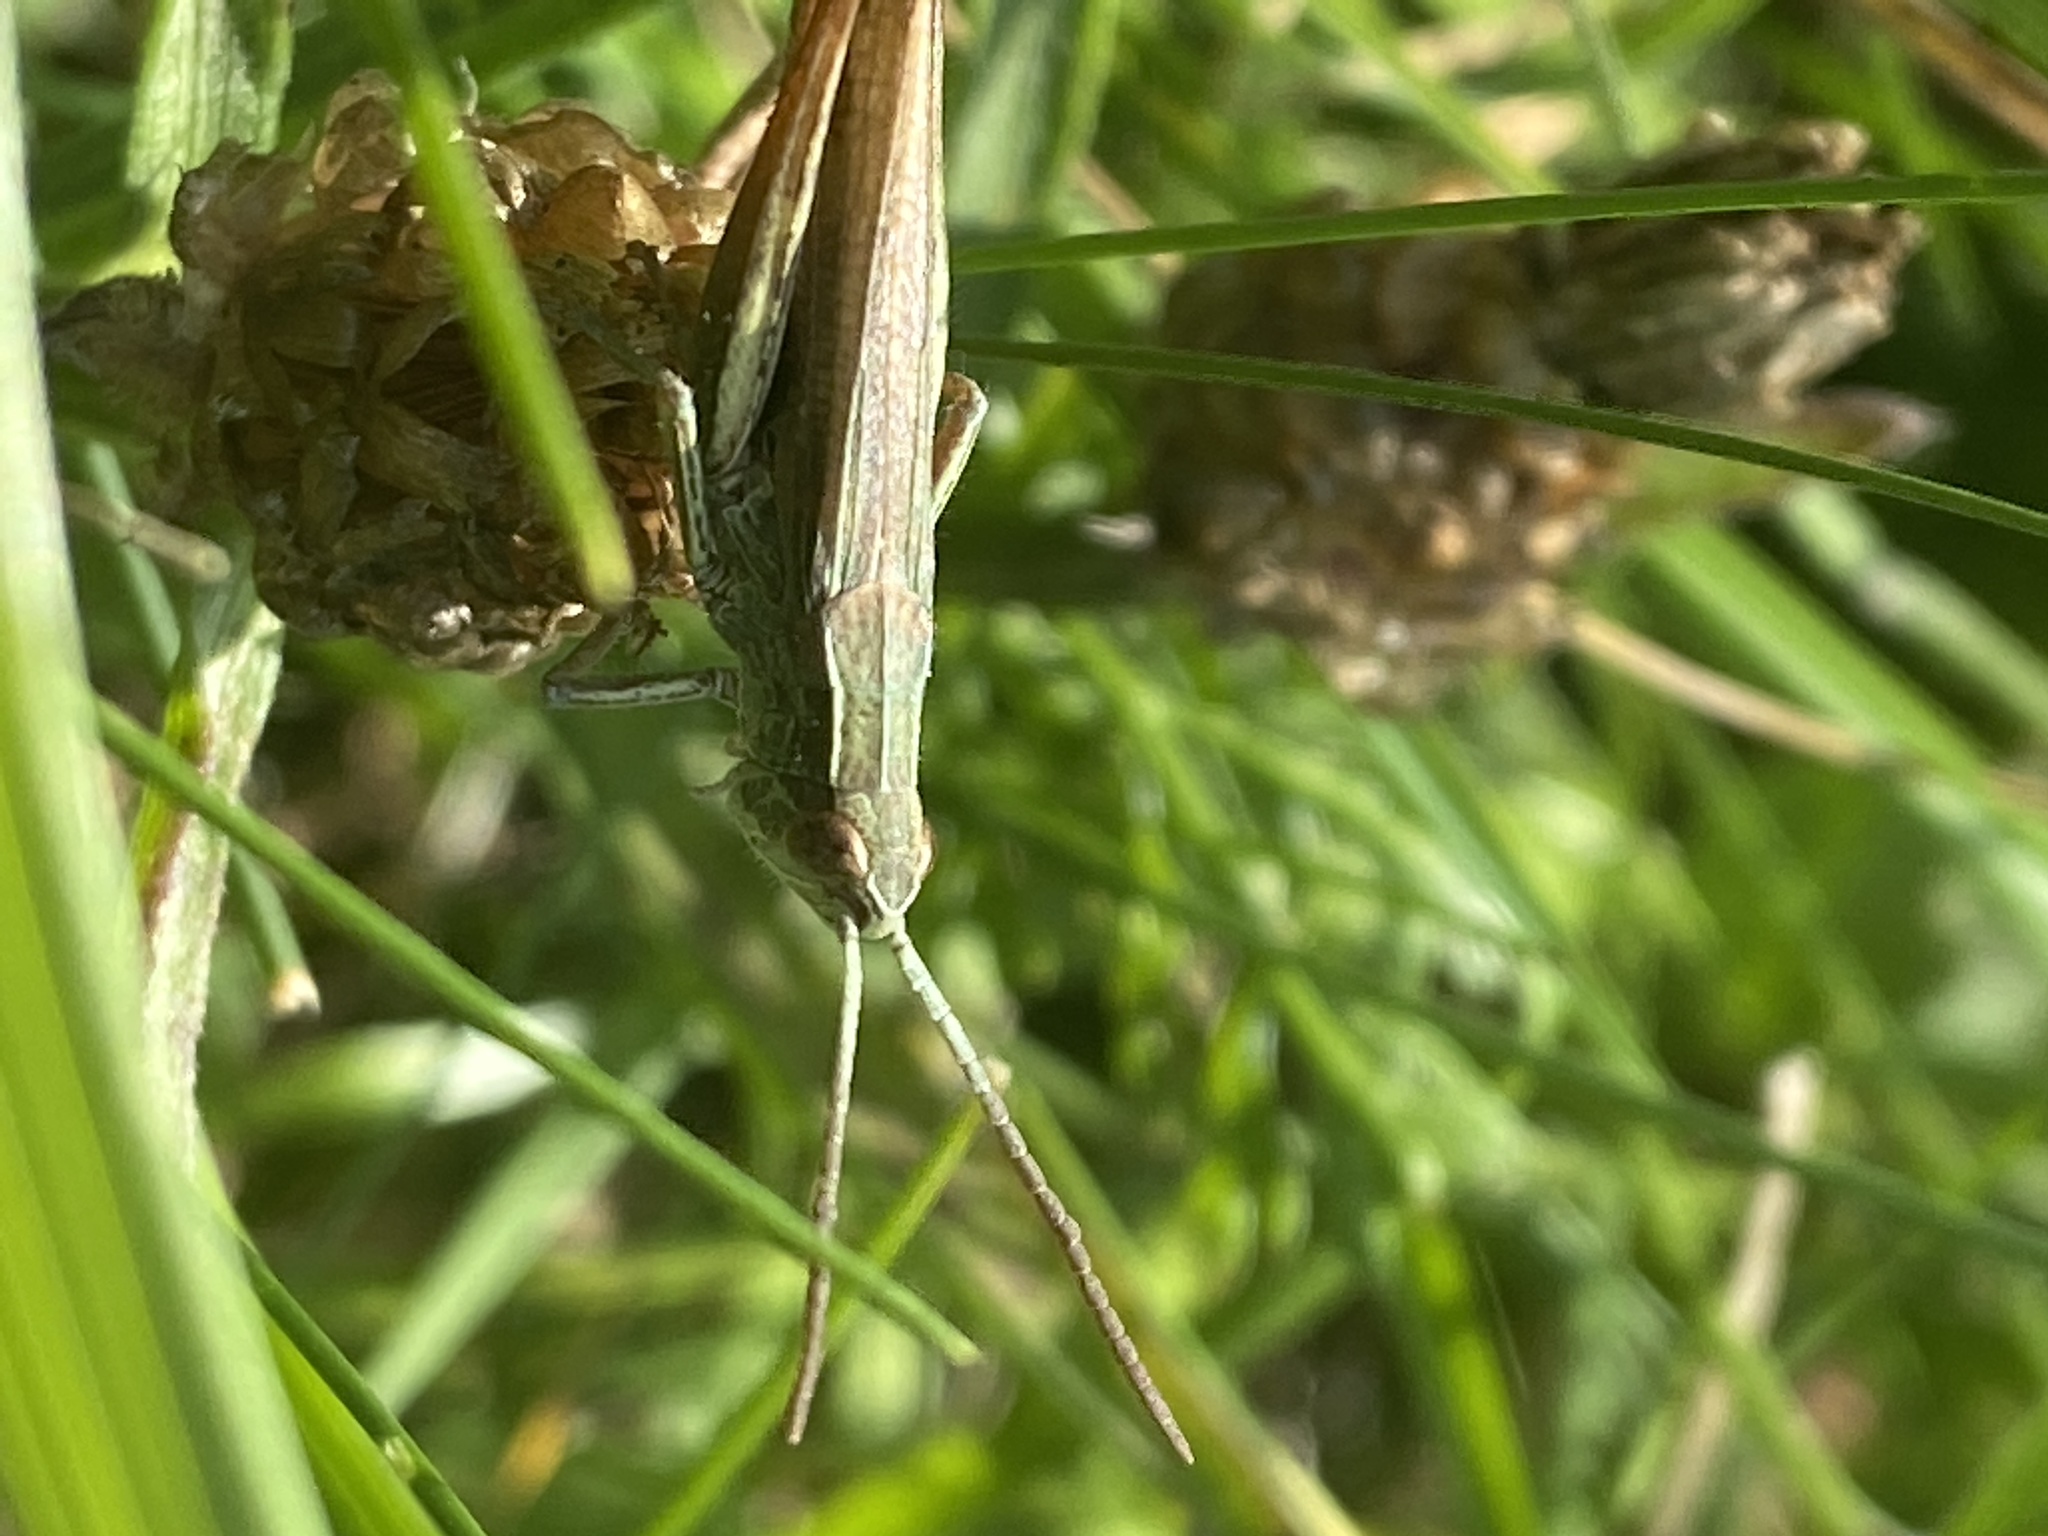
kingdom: Animalia
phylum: Arthropoda
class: Insecta
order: Orthoptera
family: Acrididae
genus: Chorthippus
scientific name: Chorthippus dorsatus
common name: Steppe grasshopper
